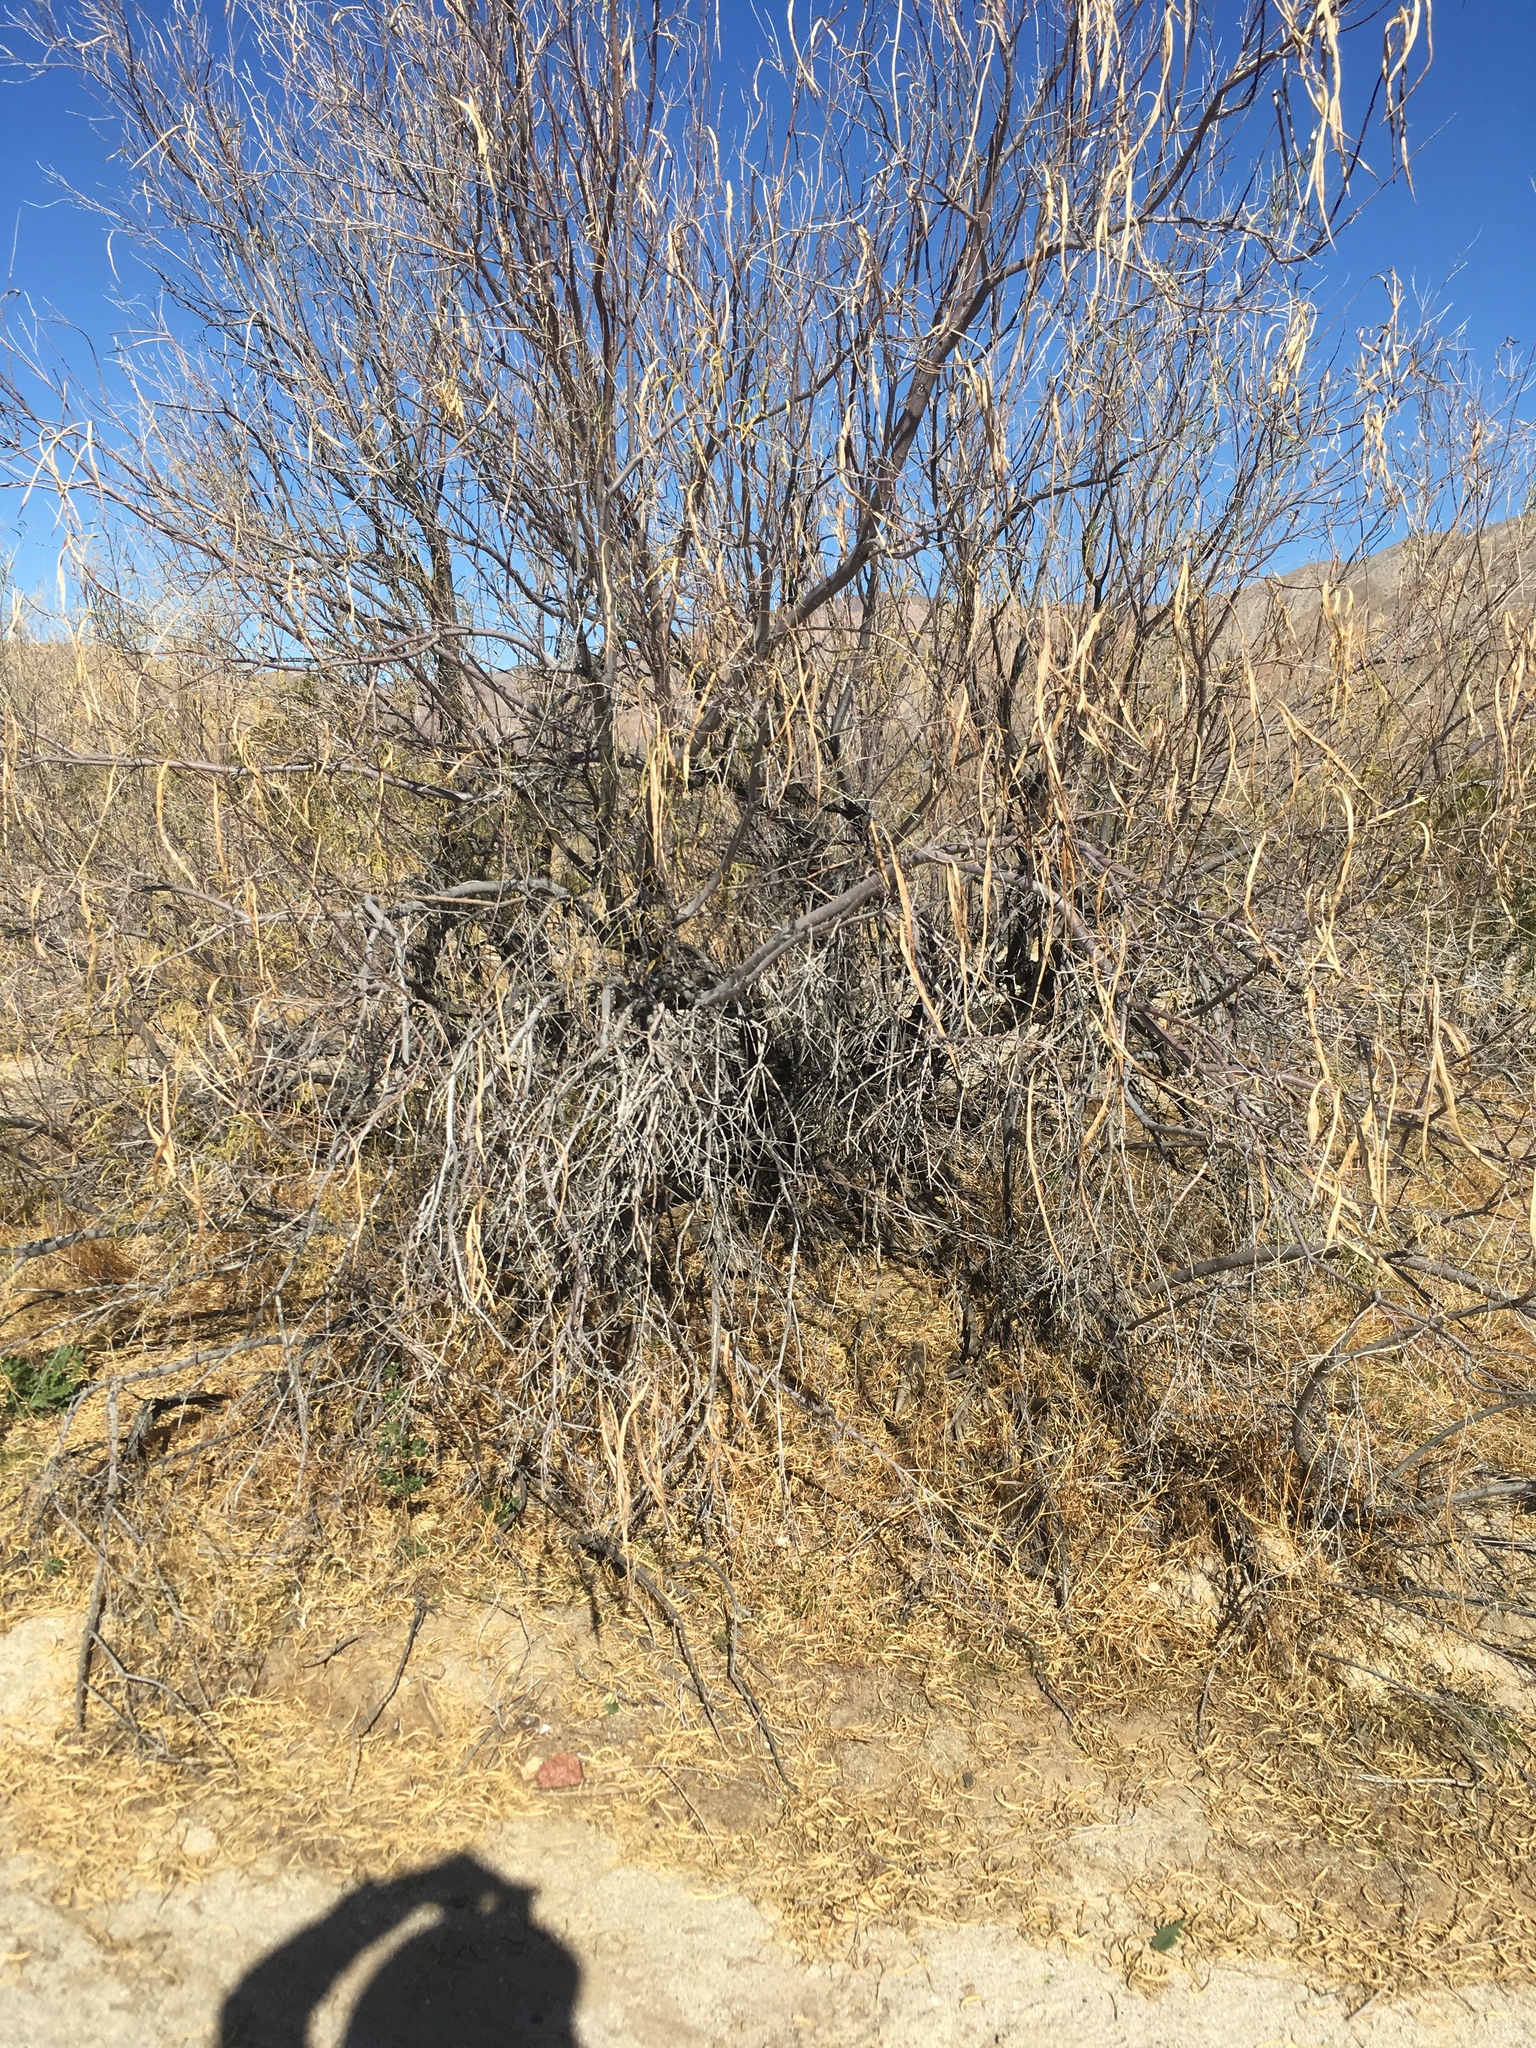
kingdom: Plantae
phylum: Tracheophyta
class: Magnoliopsida
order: Brassicales
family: Brassicaceae
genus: Brassica
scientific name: Brassica tournefortii
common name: Pale cabbage
